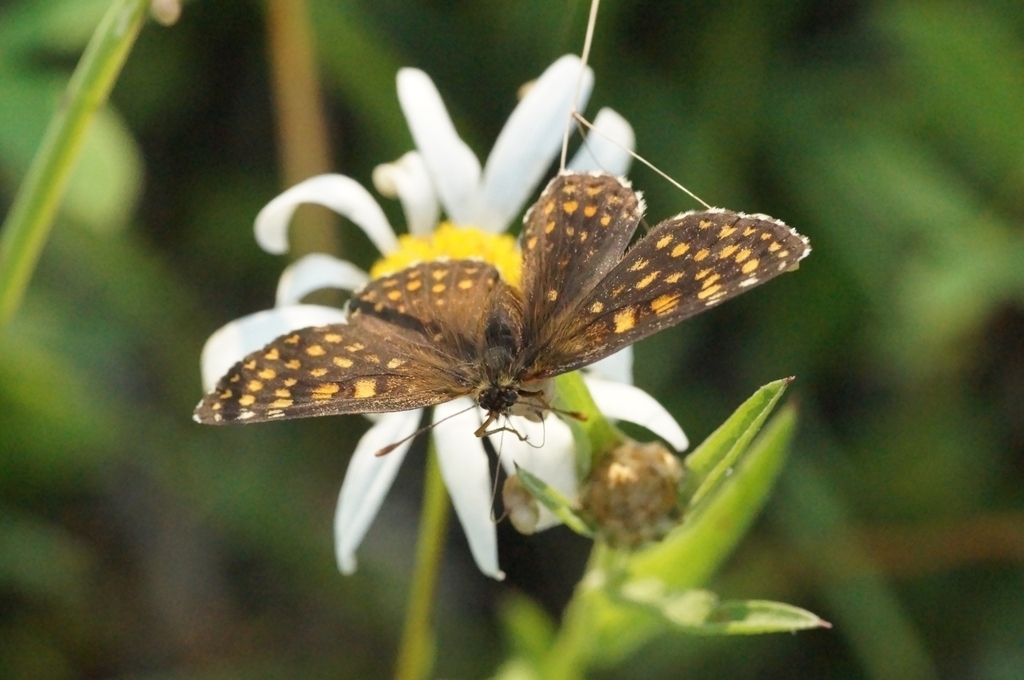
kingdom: Animalia
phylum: Arthropoda
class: Insecta
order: Lepidoptera
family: Nymphalidae
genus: Mellicta
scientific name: Mellicta britomartis
